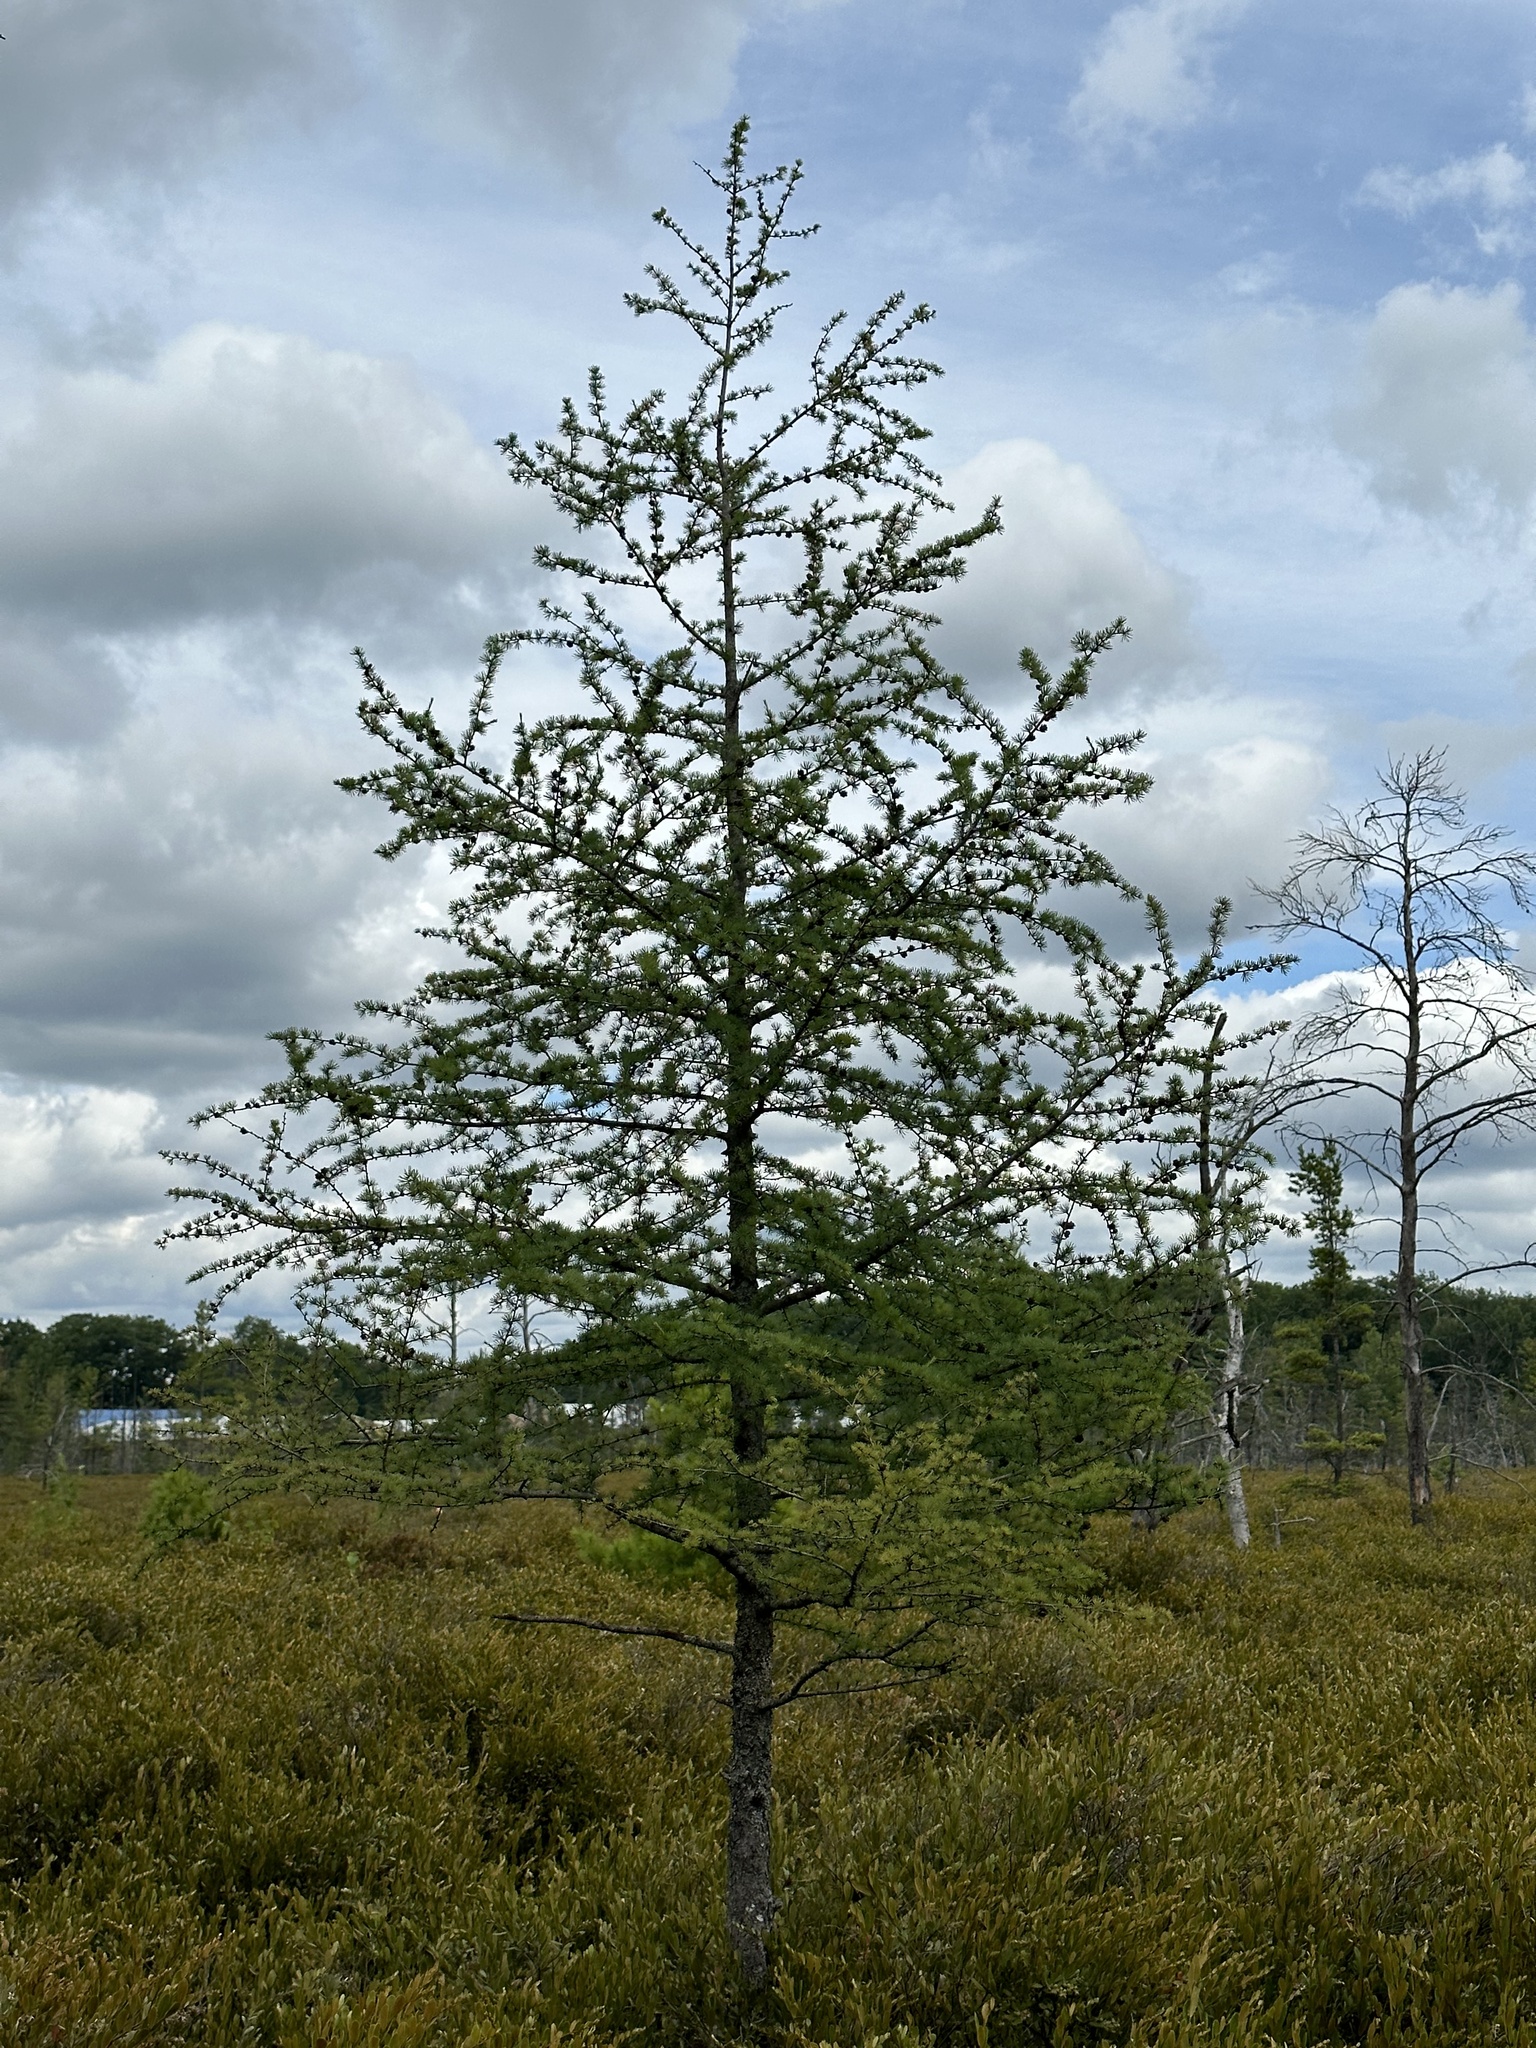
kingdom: Plantae
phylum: Tracheophyta
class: Pinopsida
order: Pinales
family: Pinaceae
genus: Larix
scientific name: Larix laricina
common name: American larch
